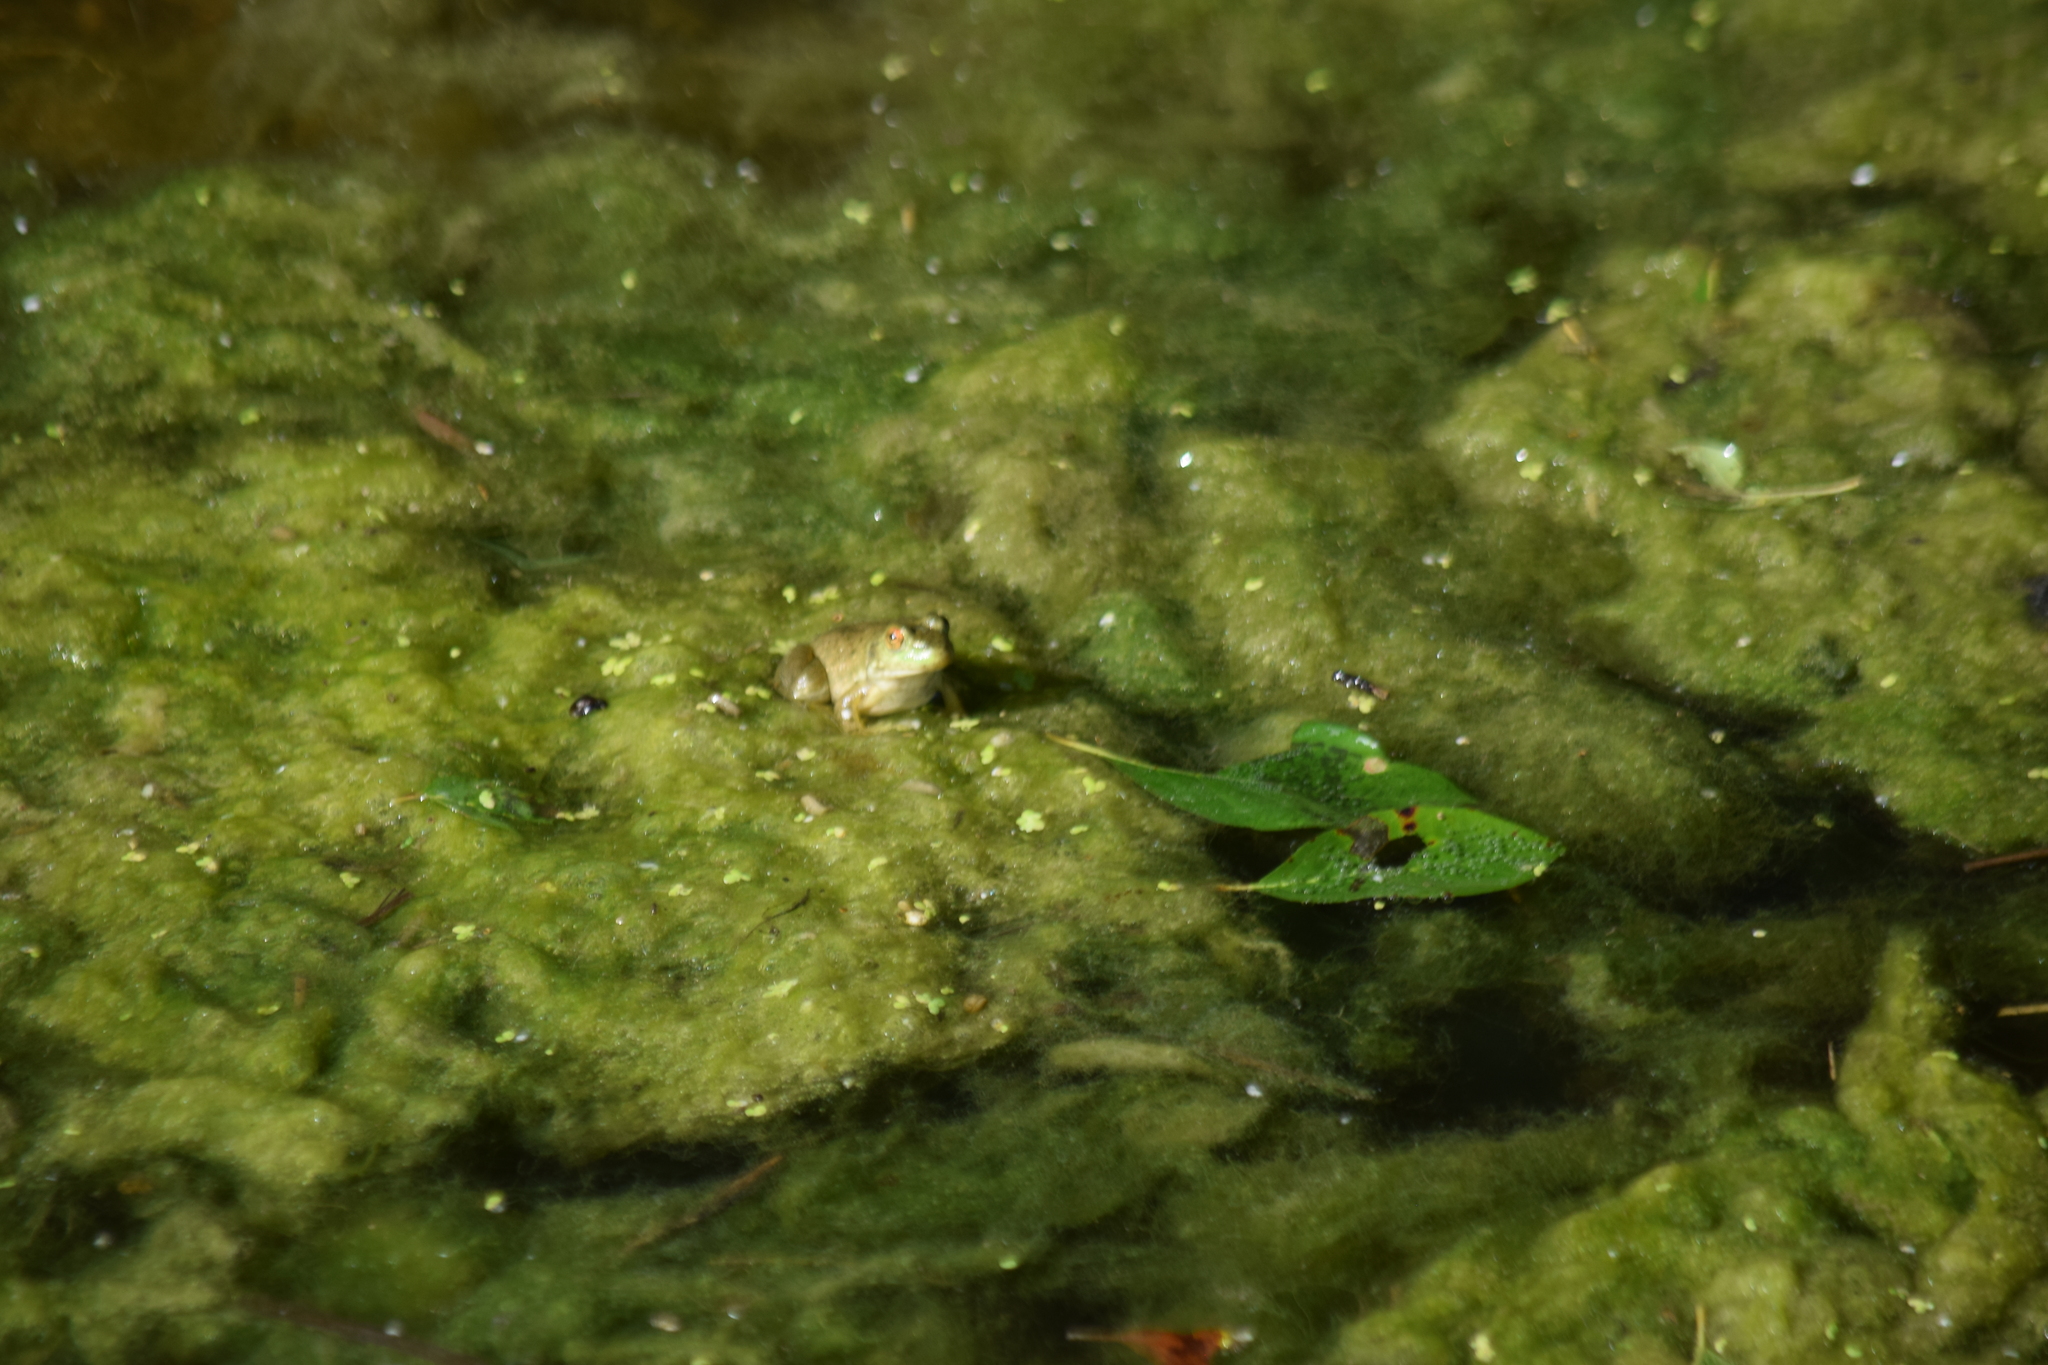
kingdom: Animalia
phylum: Chordata
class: Amphibia
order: Anura
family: Ranidae
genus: Lithobates
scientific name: Lithobates catesbeianus
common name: American bullfrog
